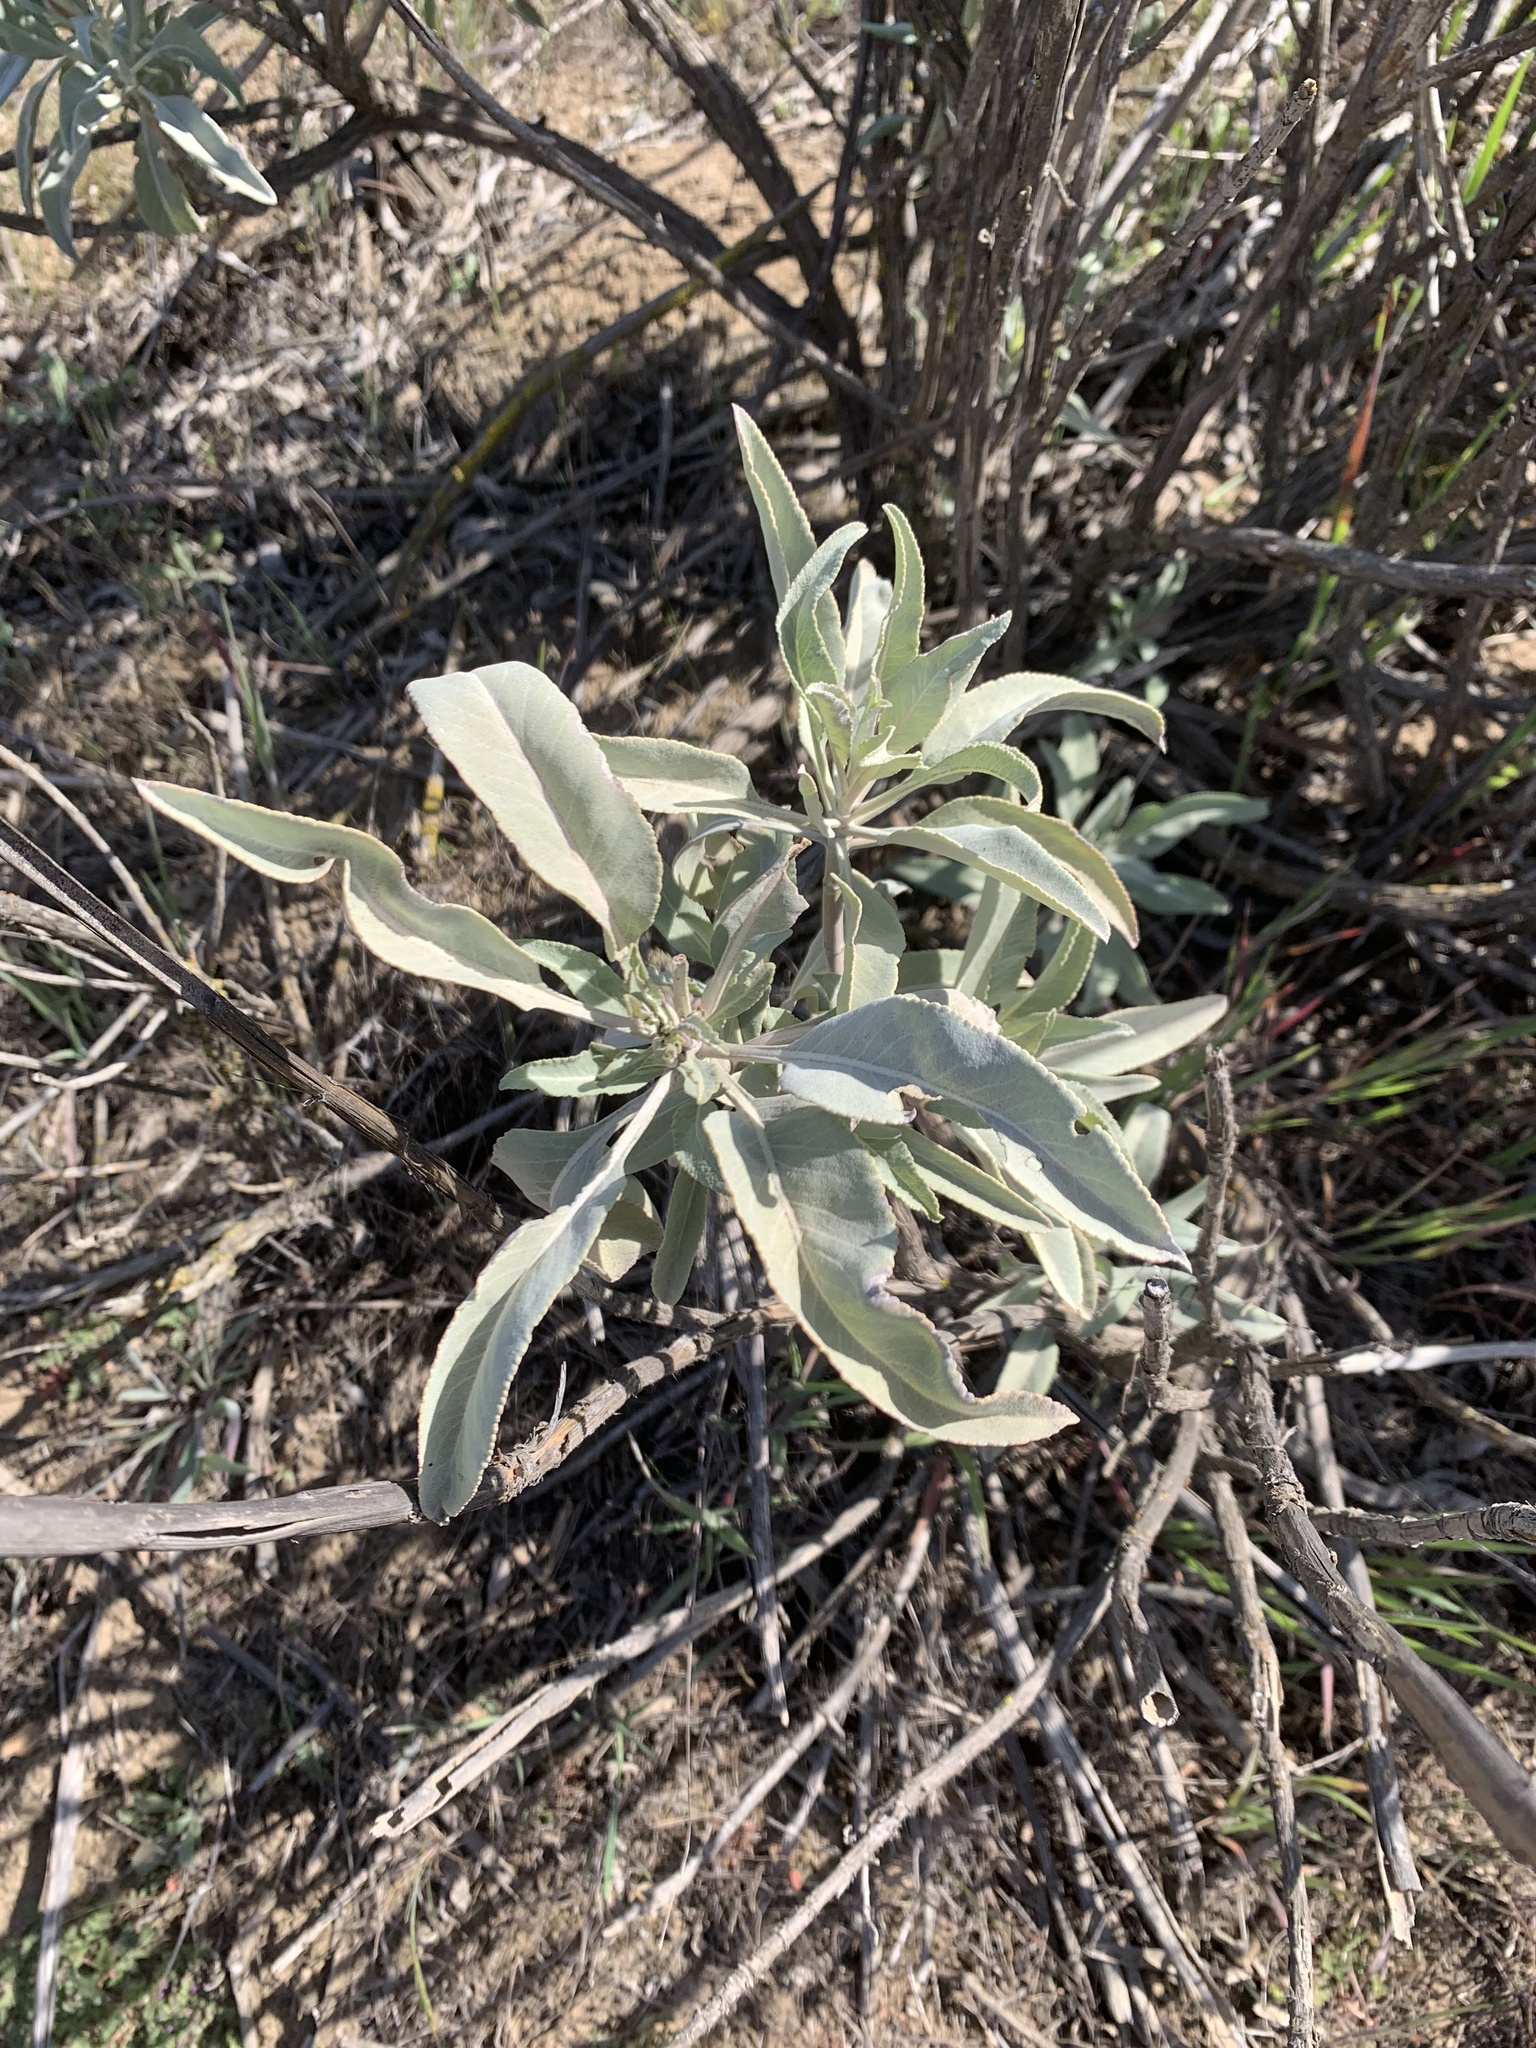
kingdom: Plantae
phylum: Tracheophyta
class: Magnoliopsida
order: Lamiales
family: Lamiaceae
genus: Salvia
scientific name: Salvia apiana
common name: White sage
